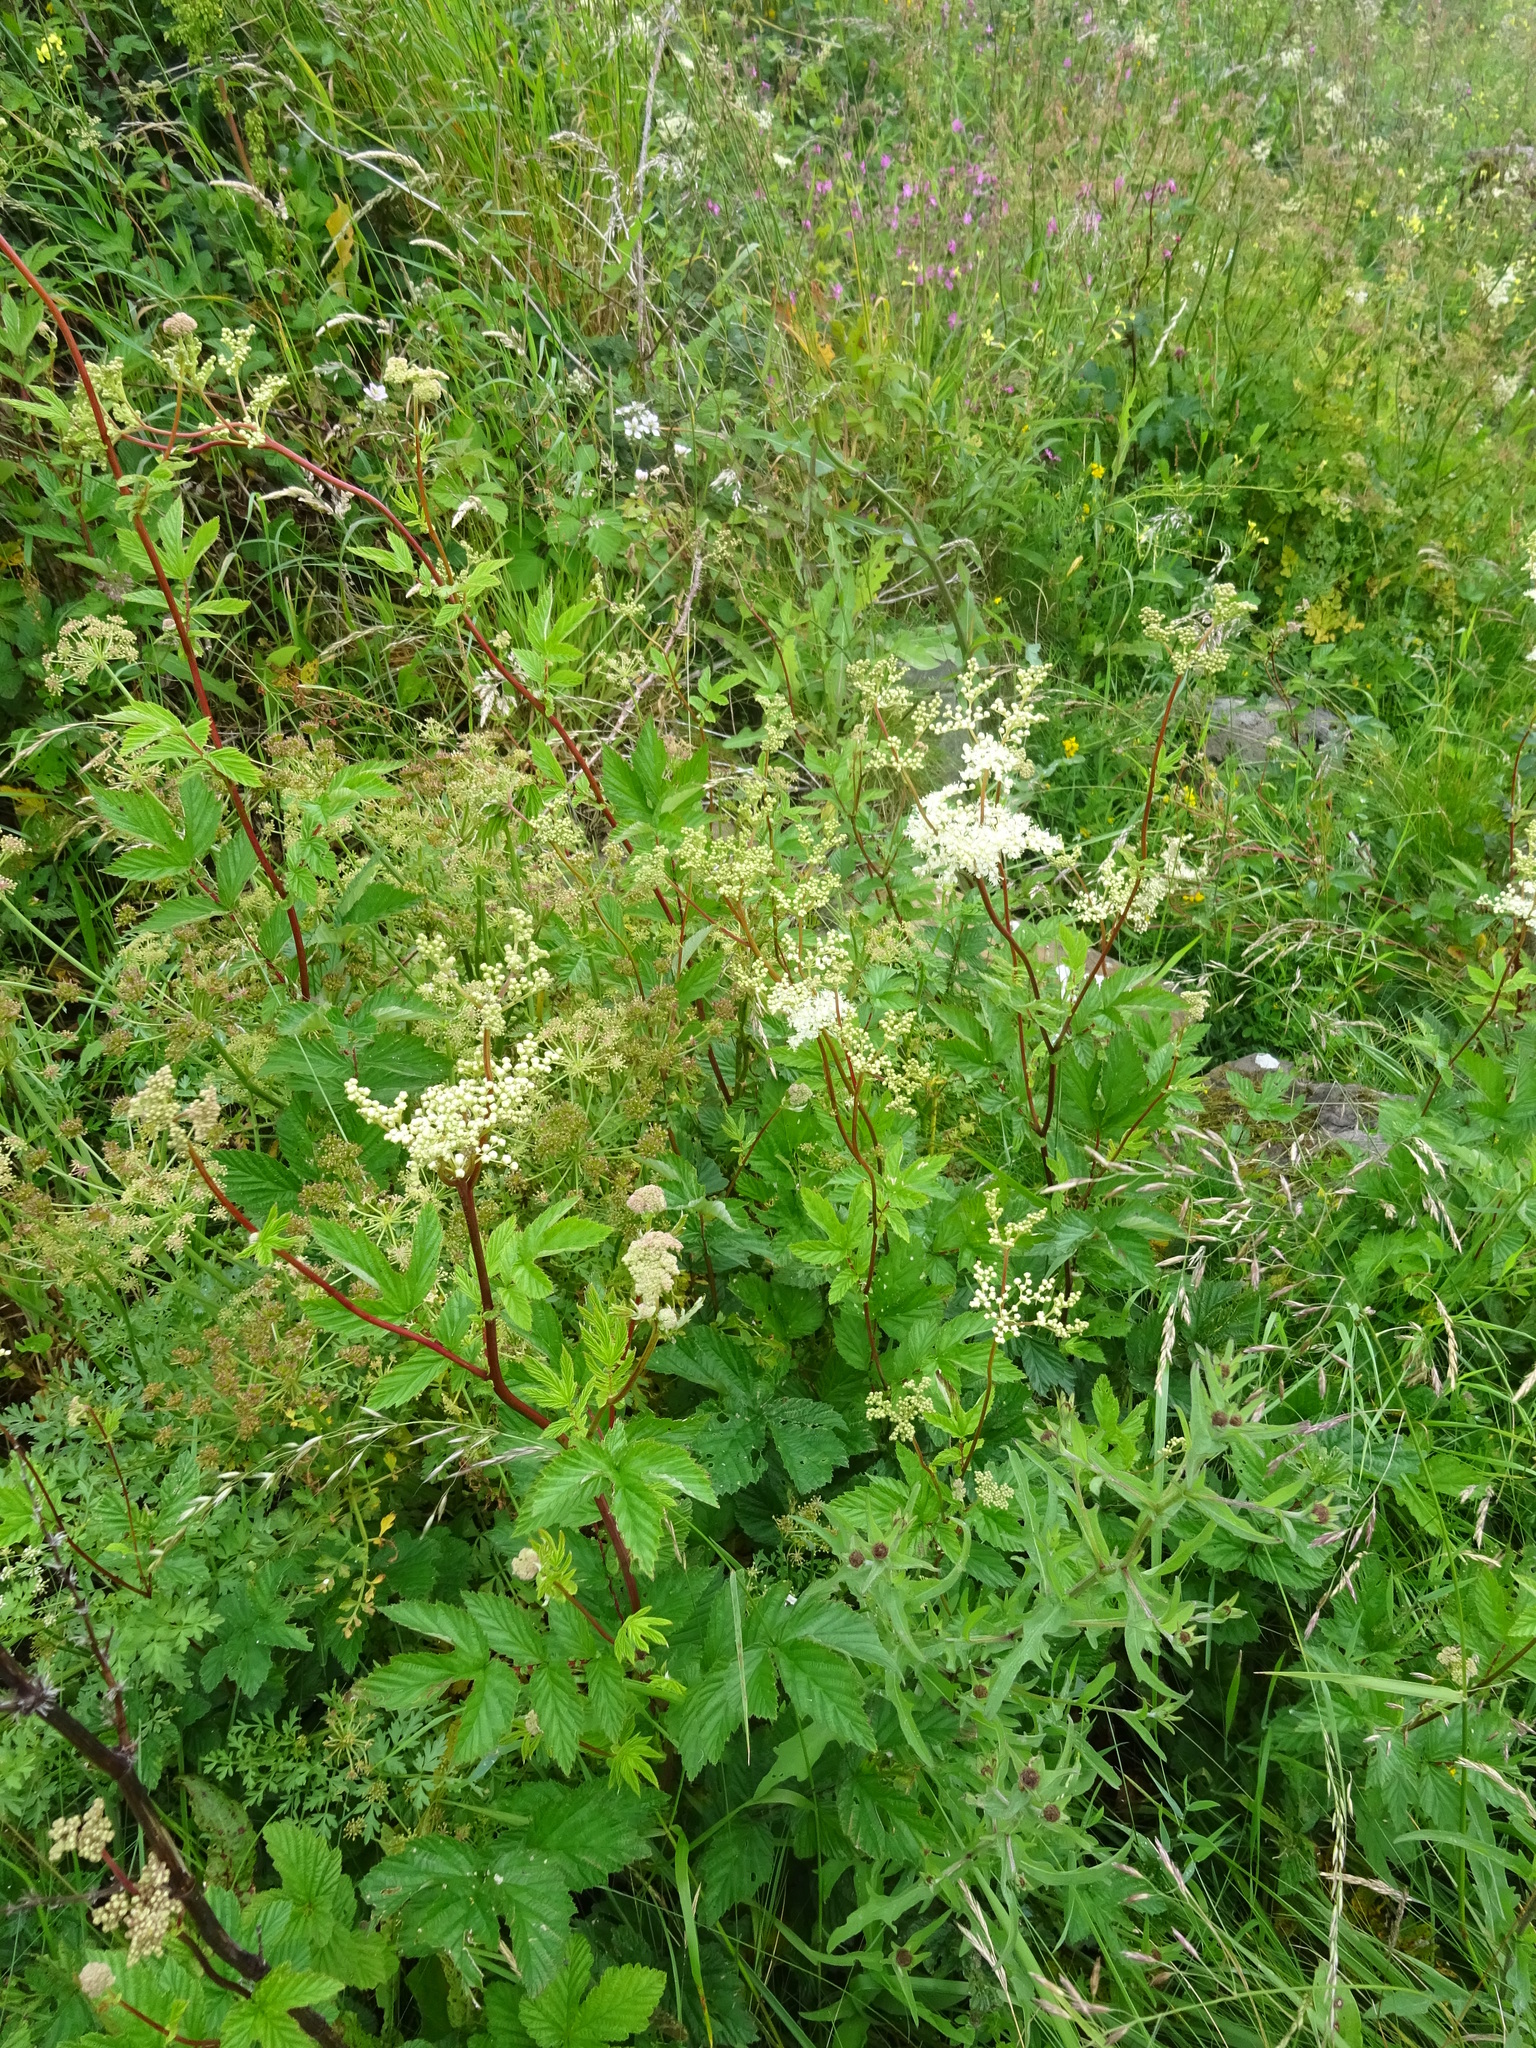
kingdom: Plantae
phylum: Tracheophyta
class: Magnoliopsida
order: Rosales
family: Rosaceae
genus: Filipendula
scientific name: Filipendula ulmaria
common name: Meadowsweet
